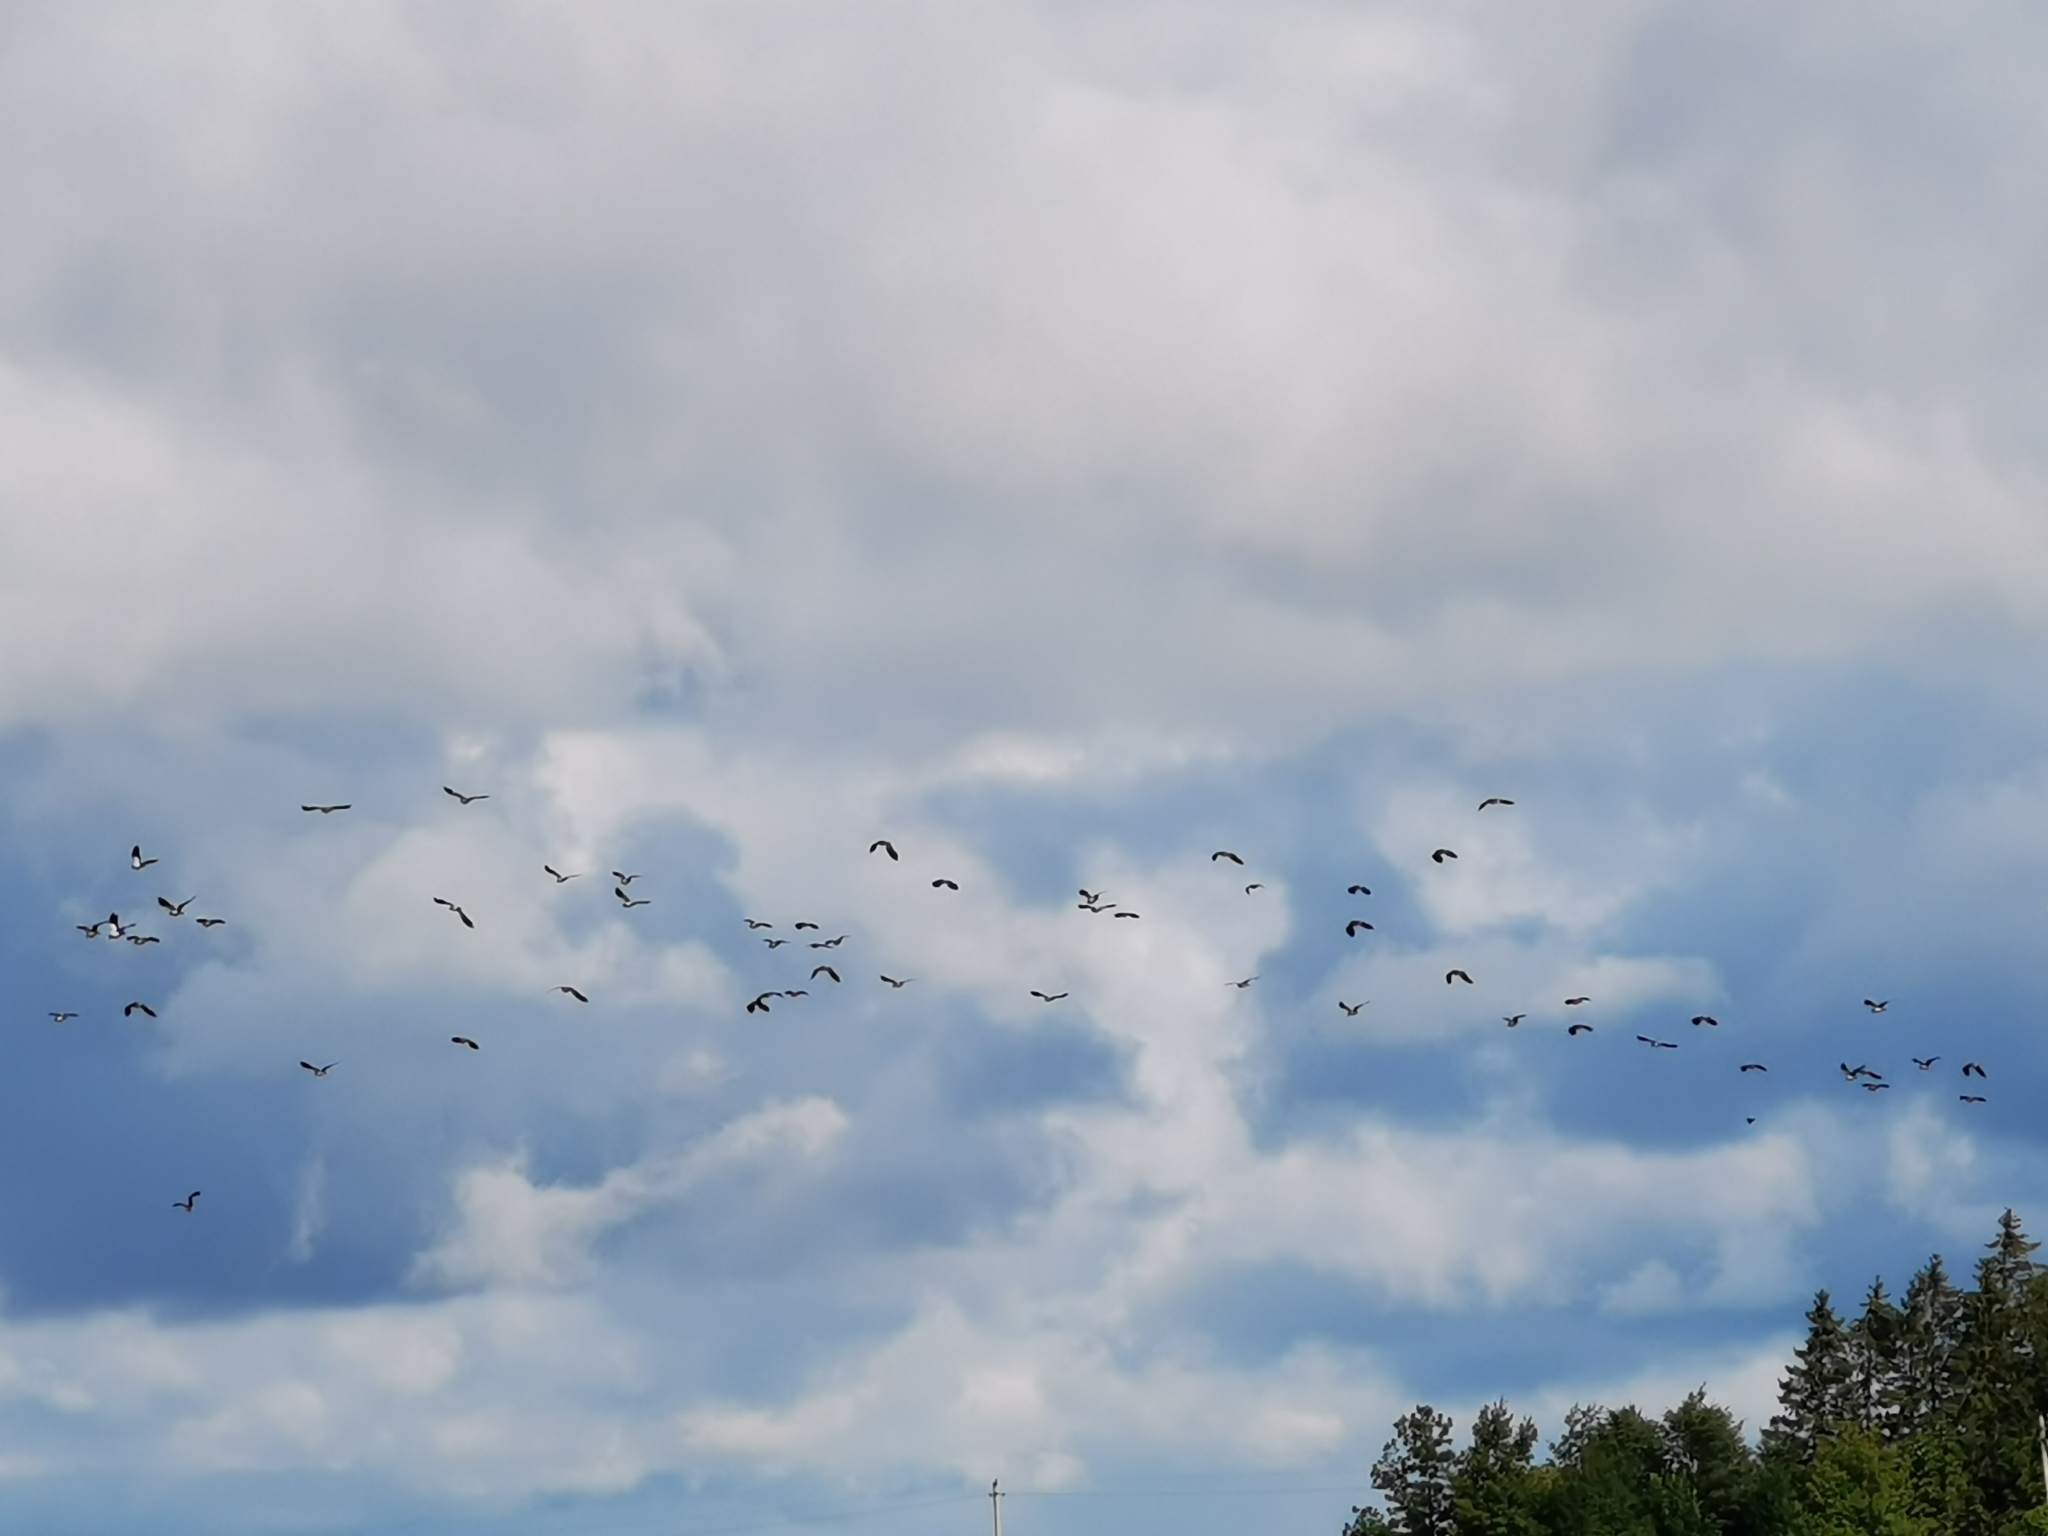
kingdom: Animalia
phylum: Chordata
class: Aves
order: Charadriiformes
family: Charadriidae
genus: Vanellus
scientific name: Vanellus vanellus
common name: Northern lapwing
